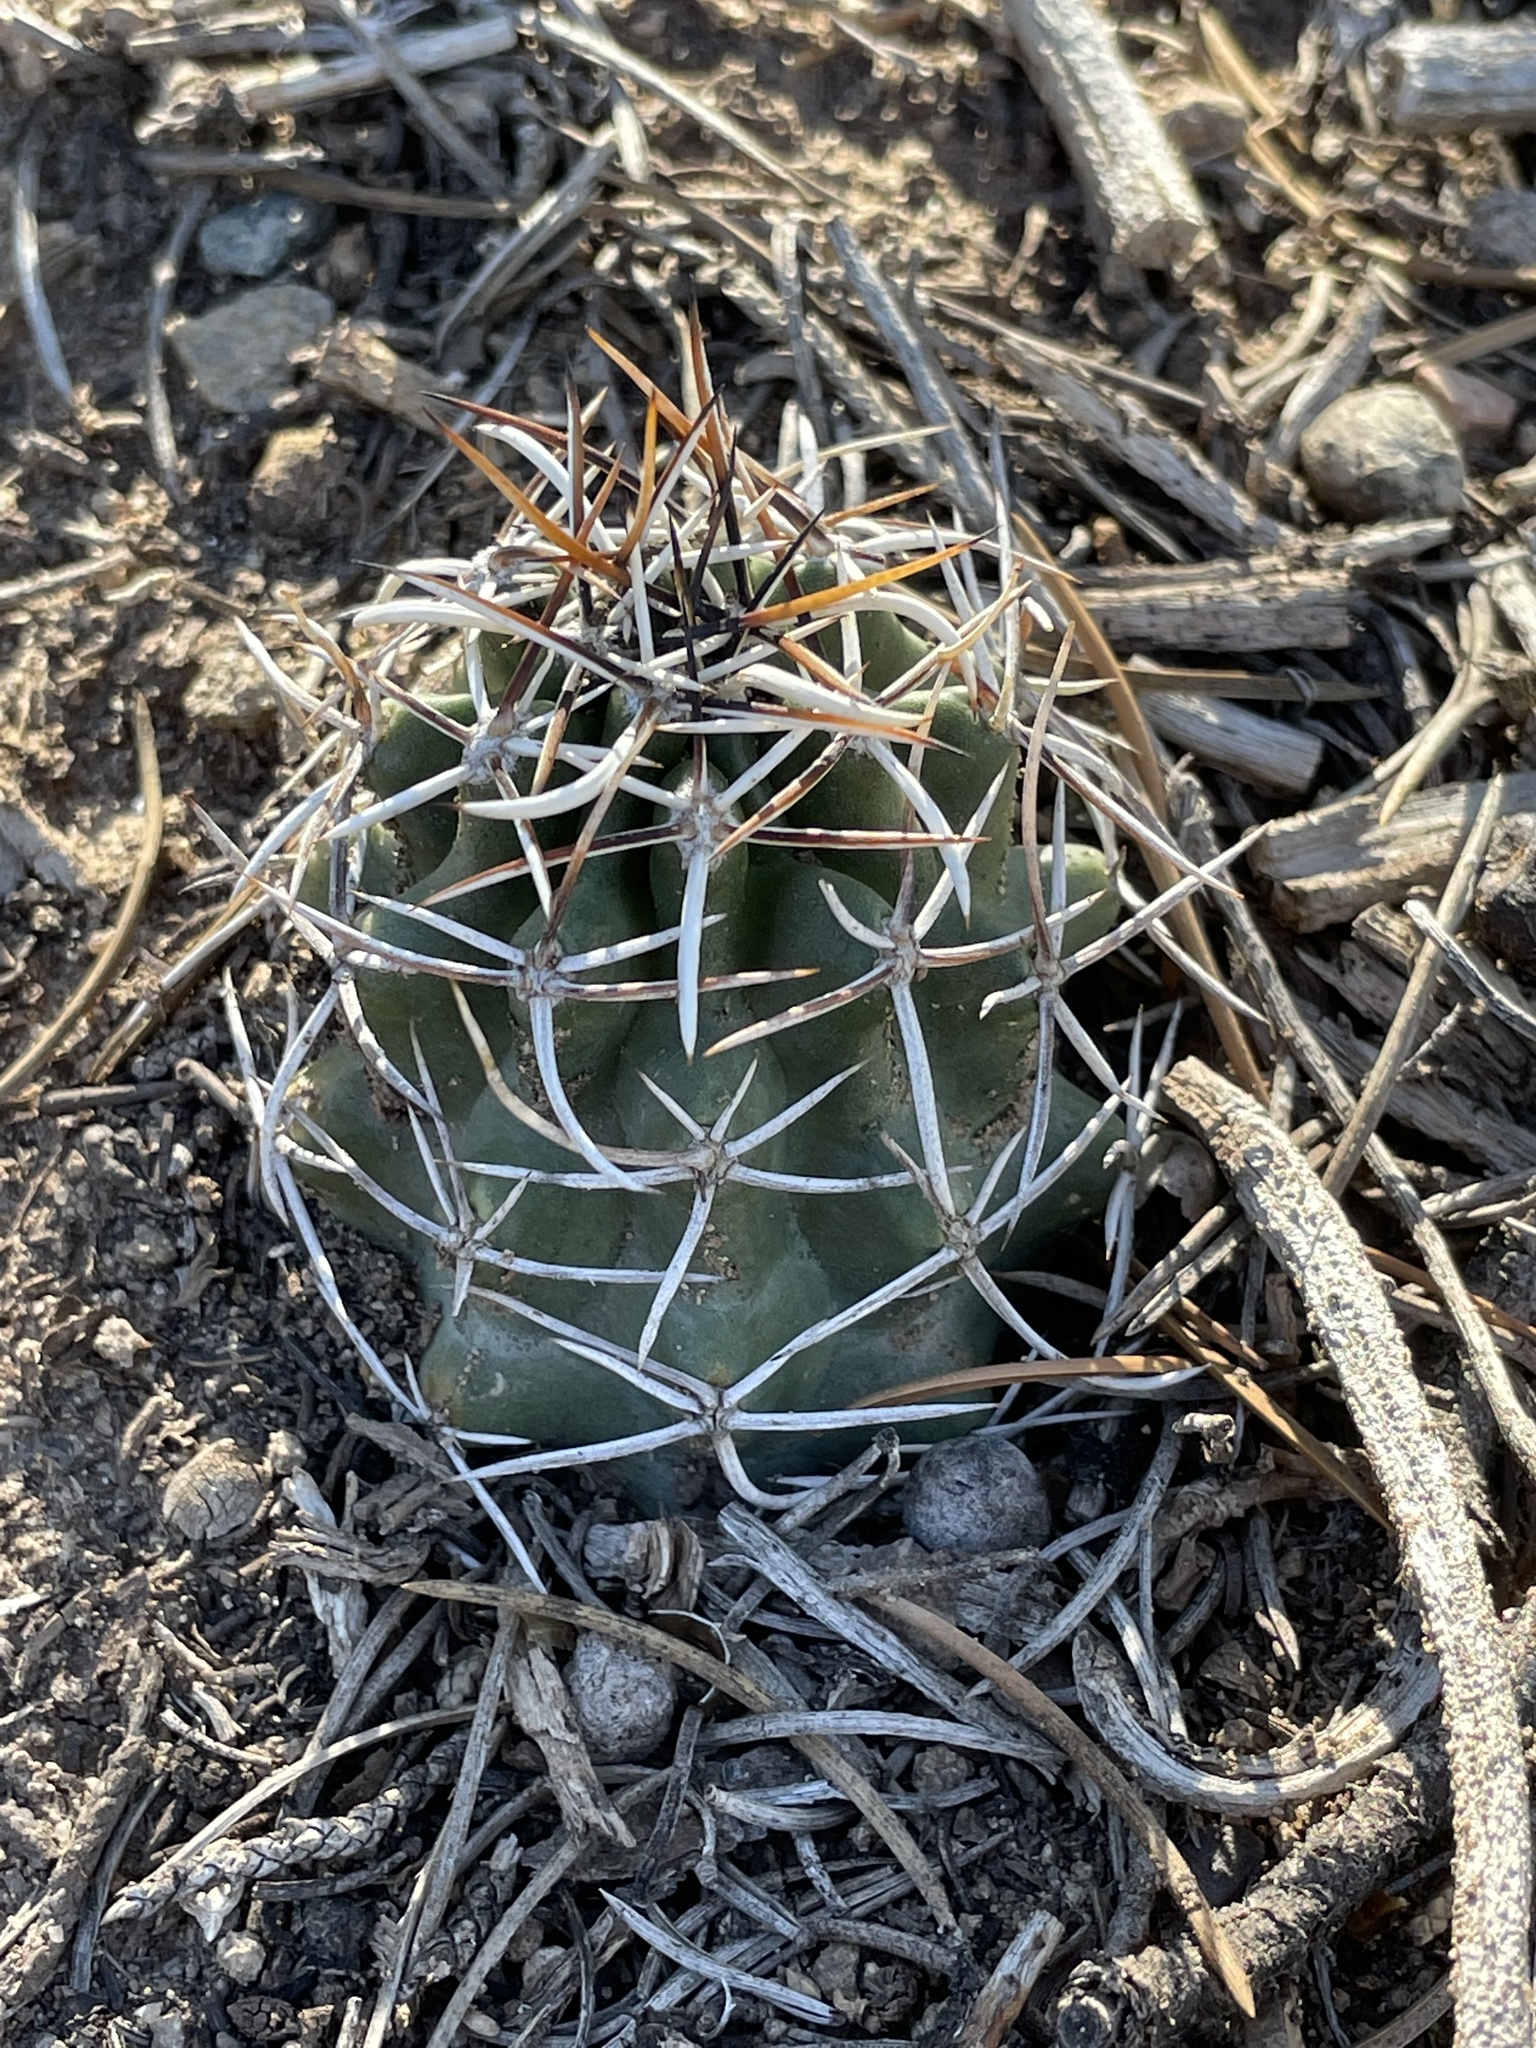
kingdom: Plantae
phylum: Tracheophyta
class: Magnoliopsida
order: Caryophyllales
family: Cactaceae
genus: Echinocereus
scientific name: Echinocereus fendleri
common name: Fendler's hedgehog cactus
